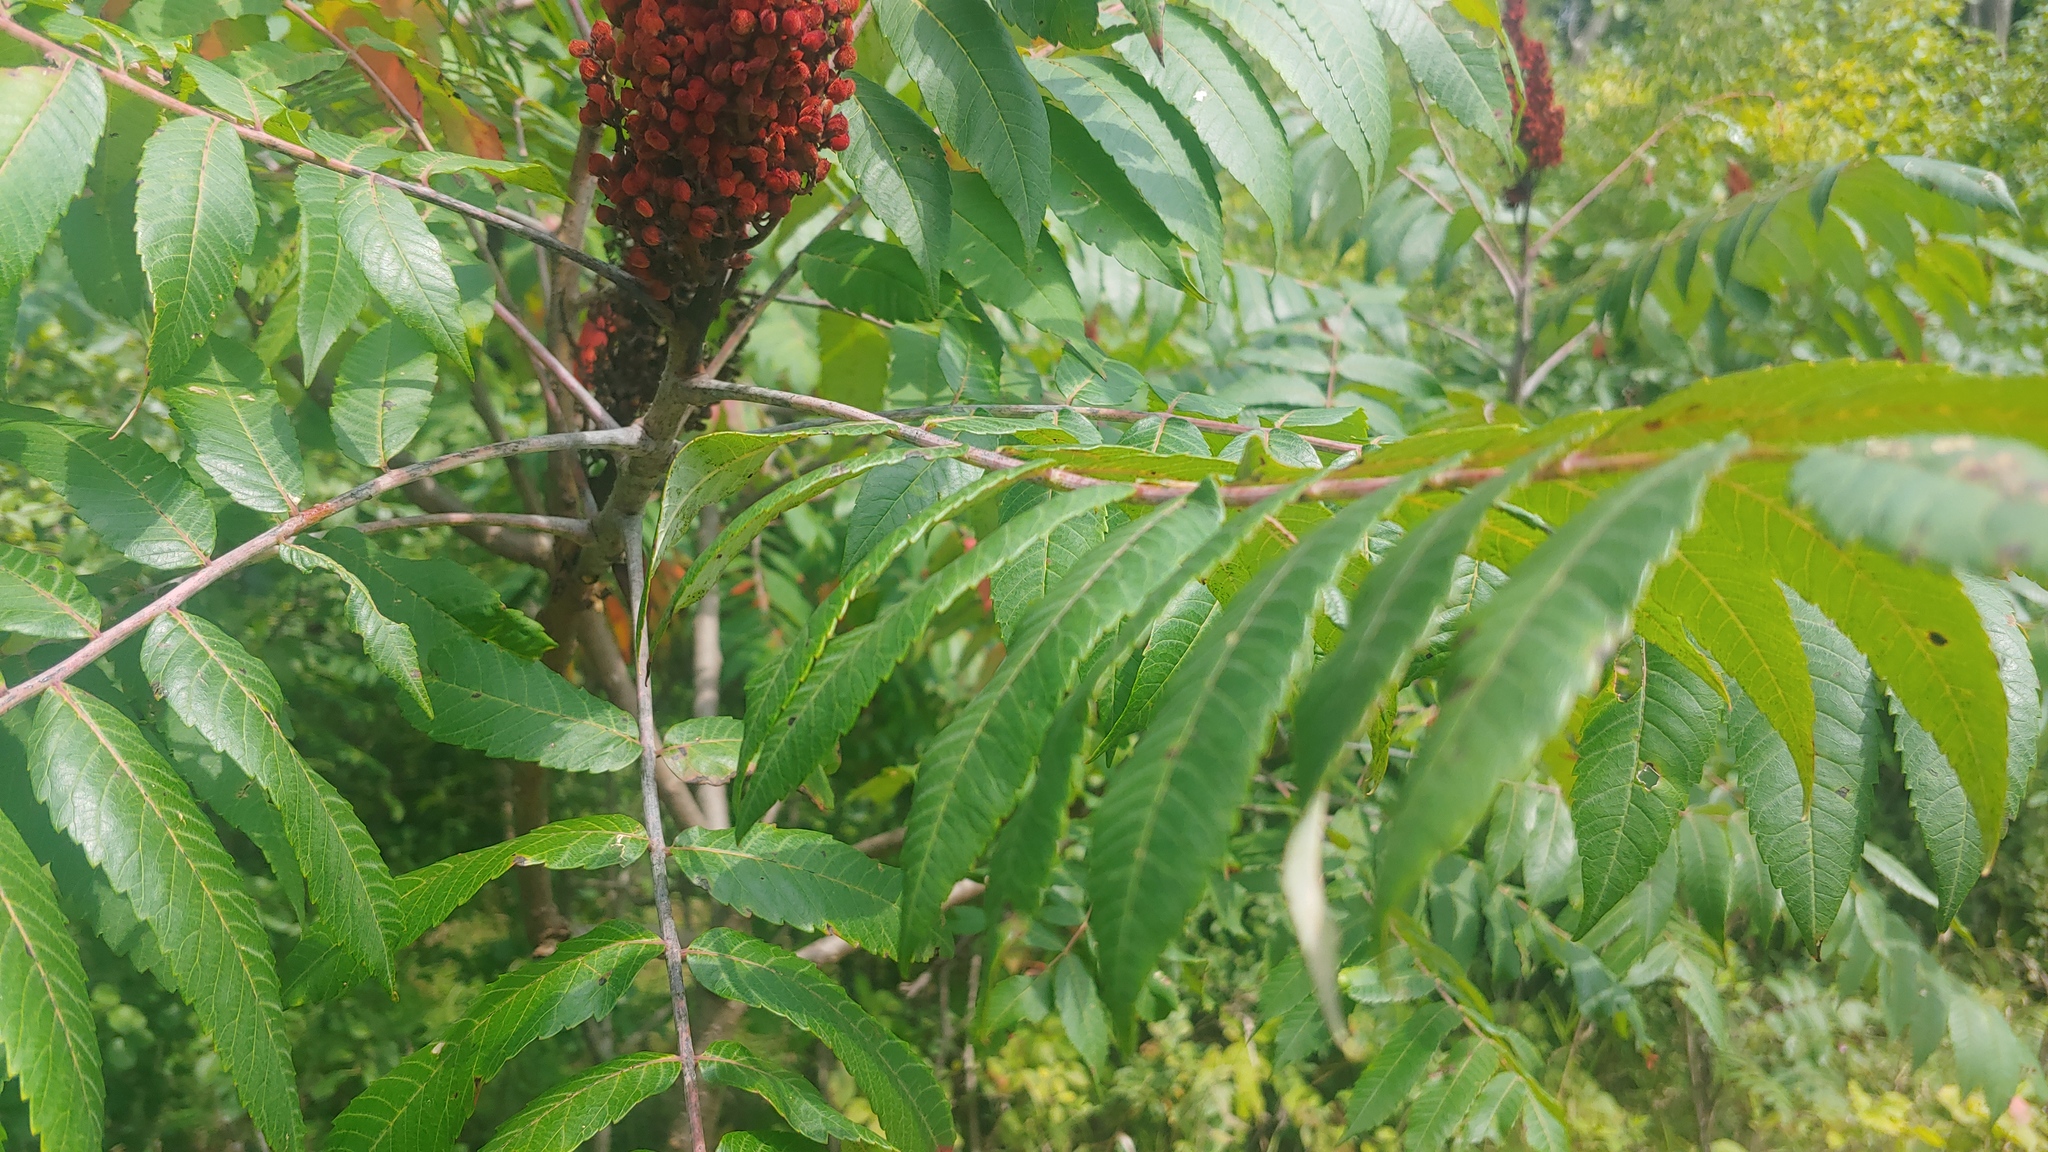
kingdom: Plantae
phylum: Tracheophyta
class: Magnoliopsida
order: Sapindales
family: Anacardiaceae
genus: Rhus
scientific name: Rhus glabra
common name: Scarlet sumac
